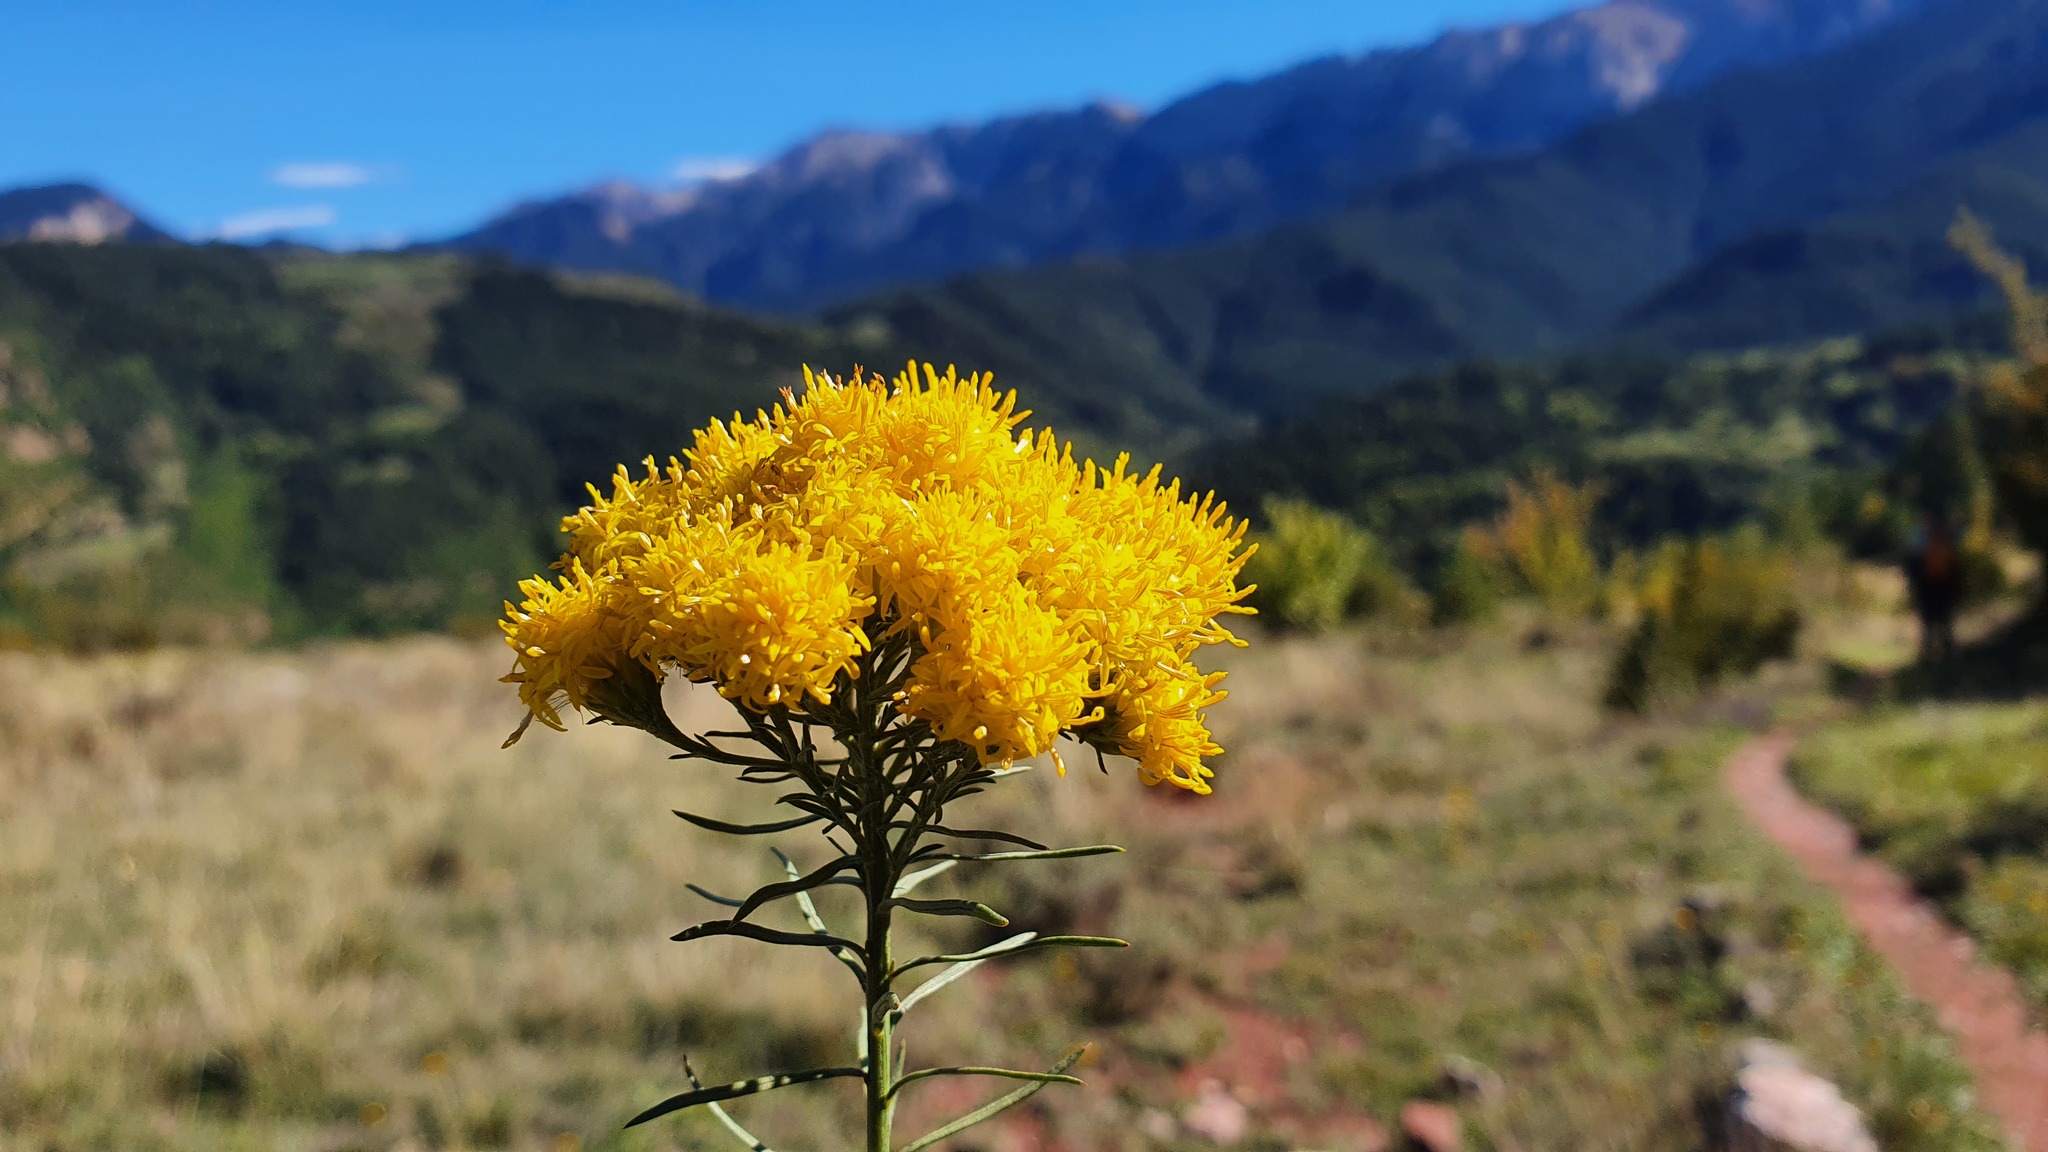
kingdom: Plantae
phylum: Tracheophyta
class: Magnoliopsida
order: Asterales
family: Asteraceae
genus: Galatella
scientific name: Galatella linosyris
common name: Goldilocks aster
